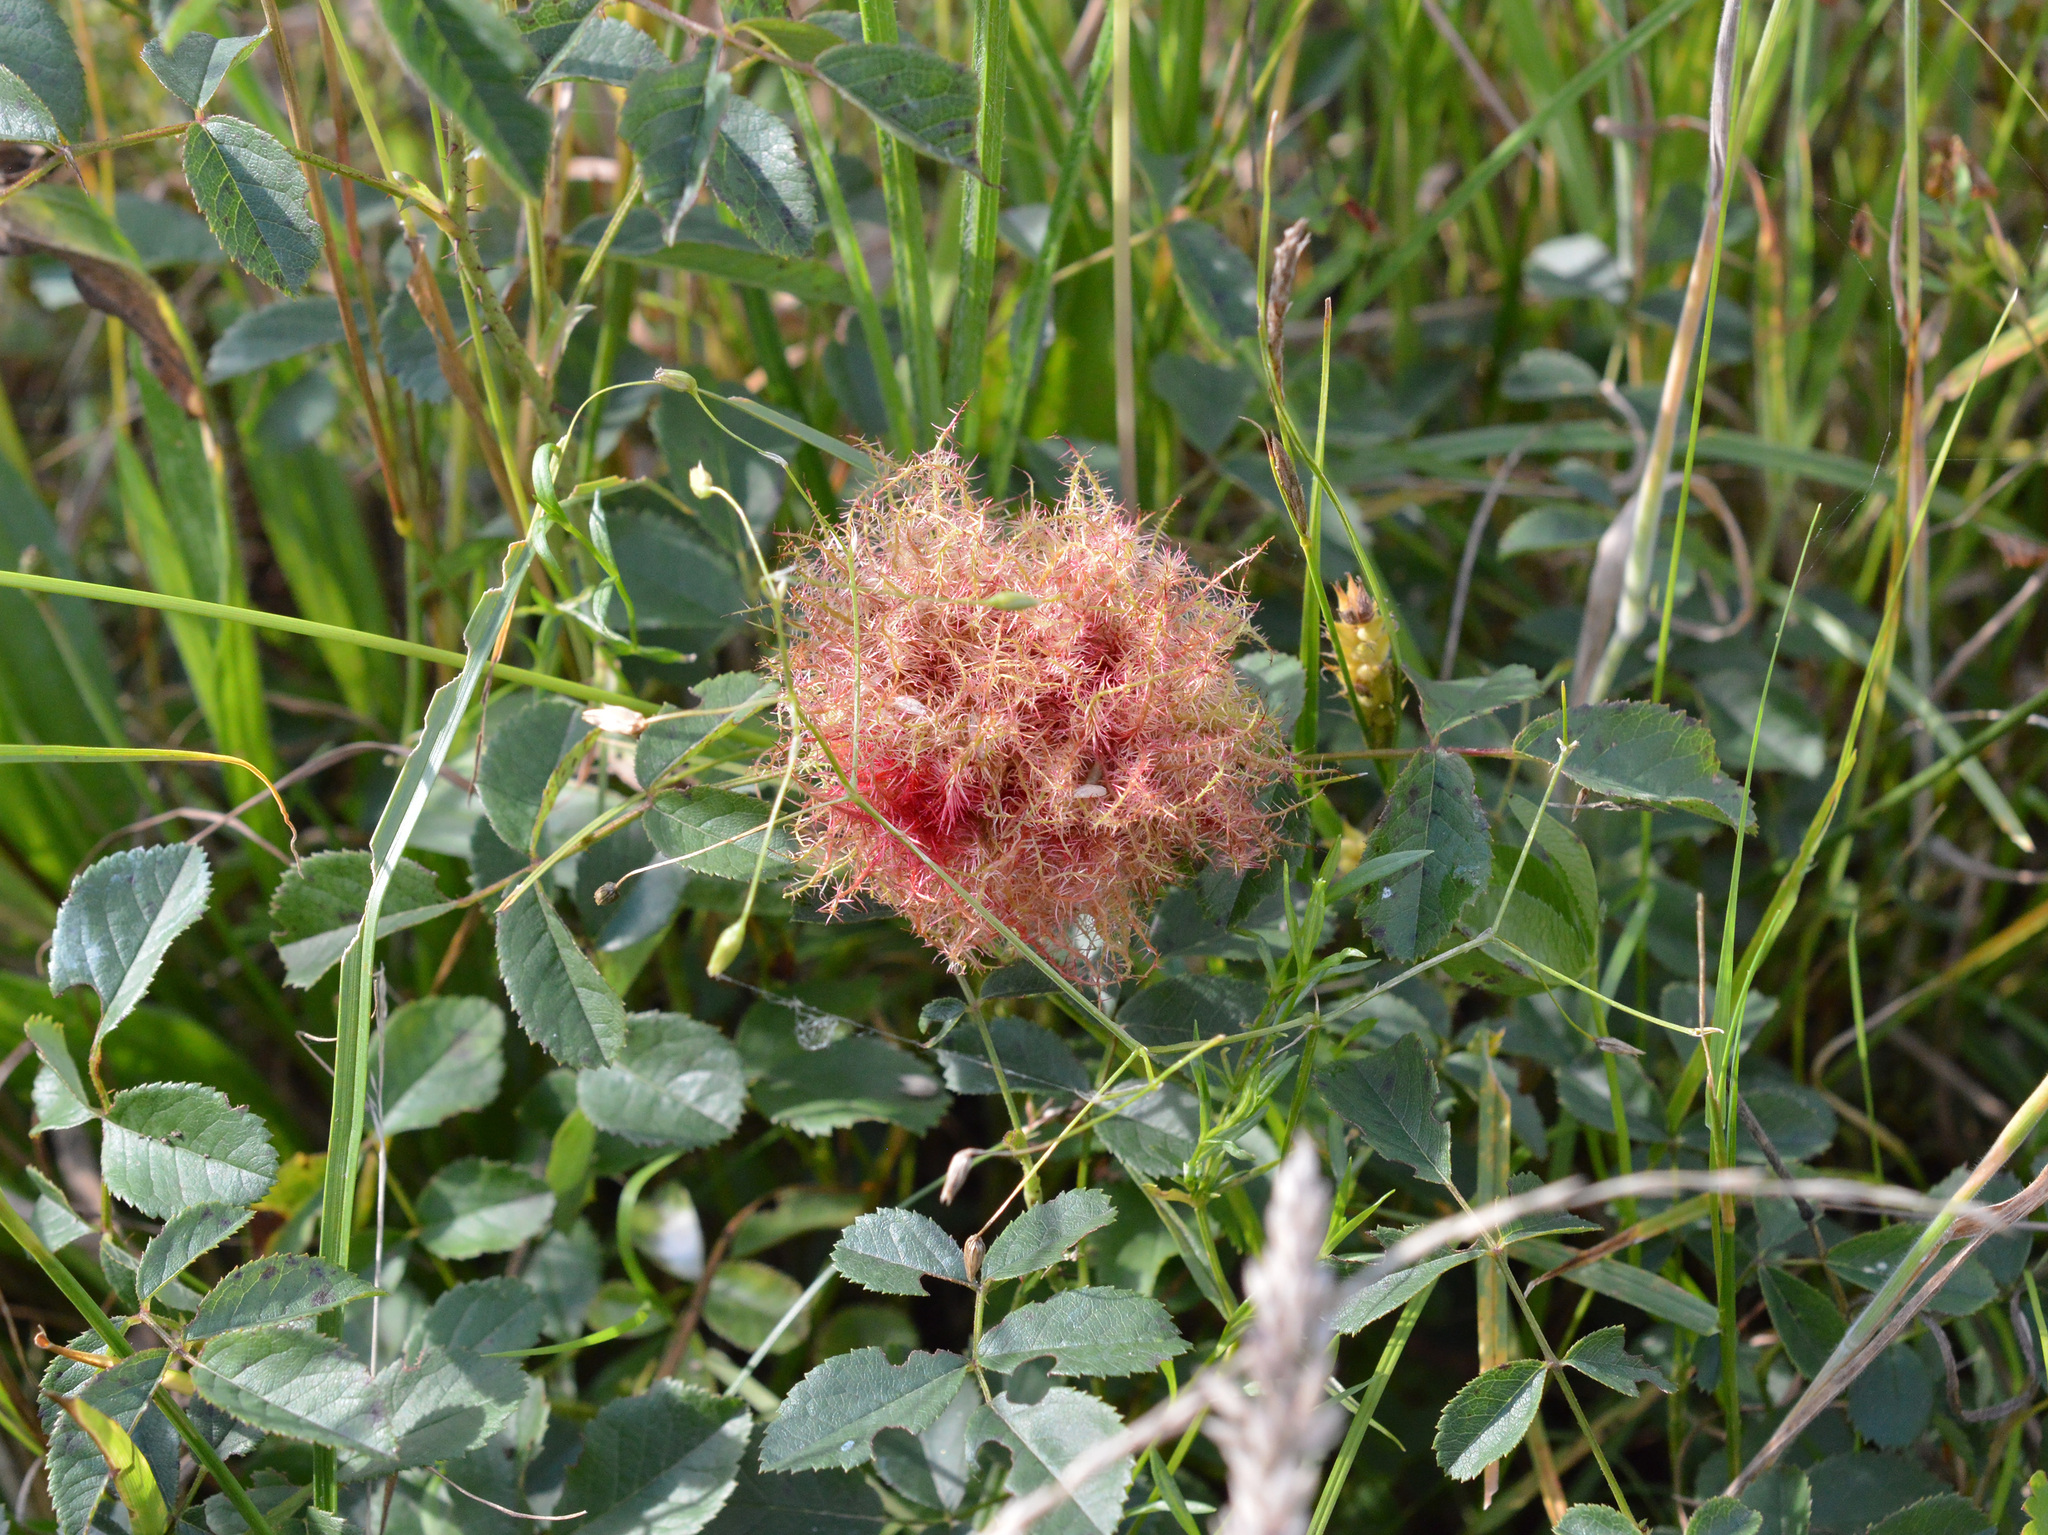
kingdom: Animalia
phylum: Arthropoda
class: Insecta
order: Hymenoptera
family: Cynipidae
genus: Diplolepis
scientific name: Diplolepis rosae
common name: Bedeguar gall
